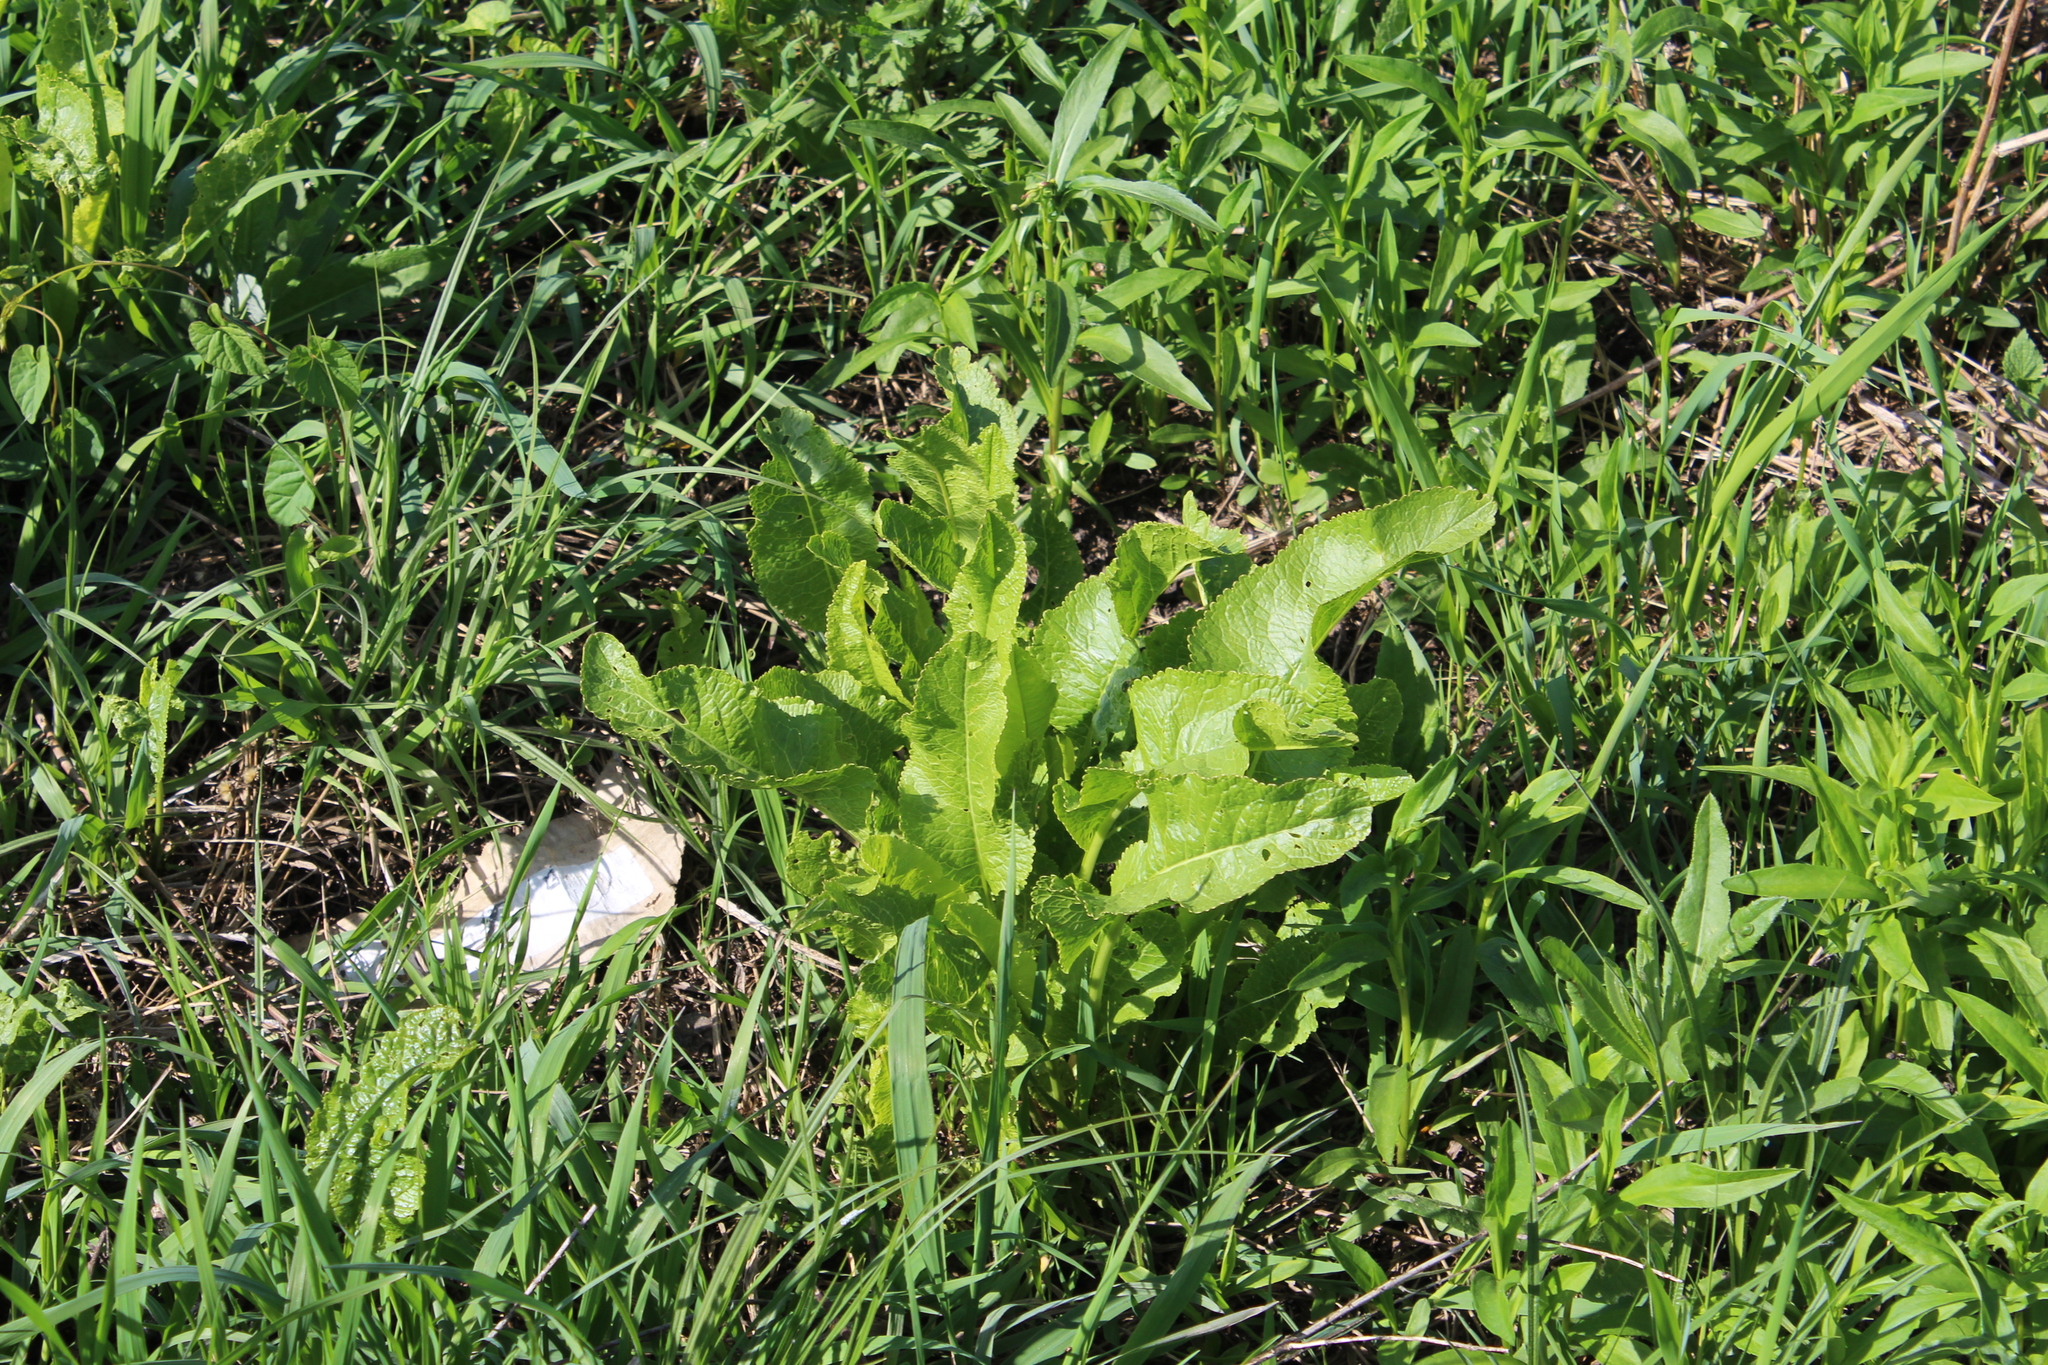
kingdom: Plantae
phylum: Tracheophyta
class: Magnoliopsida
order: Brassicales
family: Brassicaceae
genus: Armoracia
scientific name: Armoracia rusticana
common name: Horseradish
